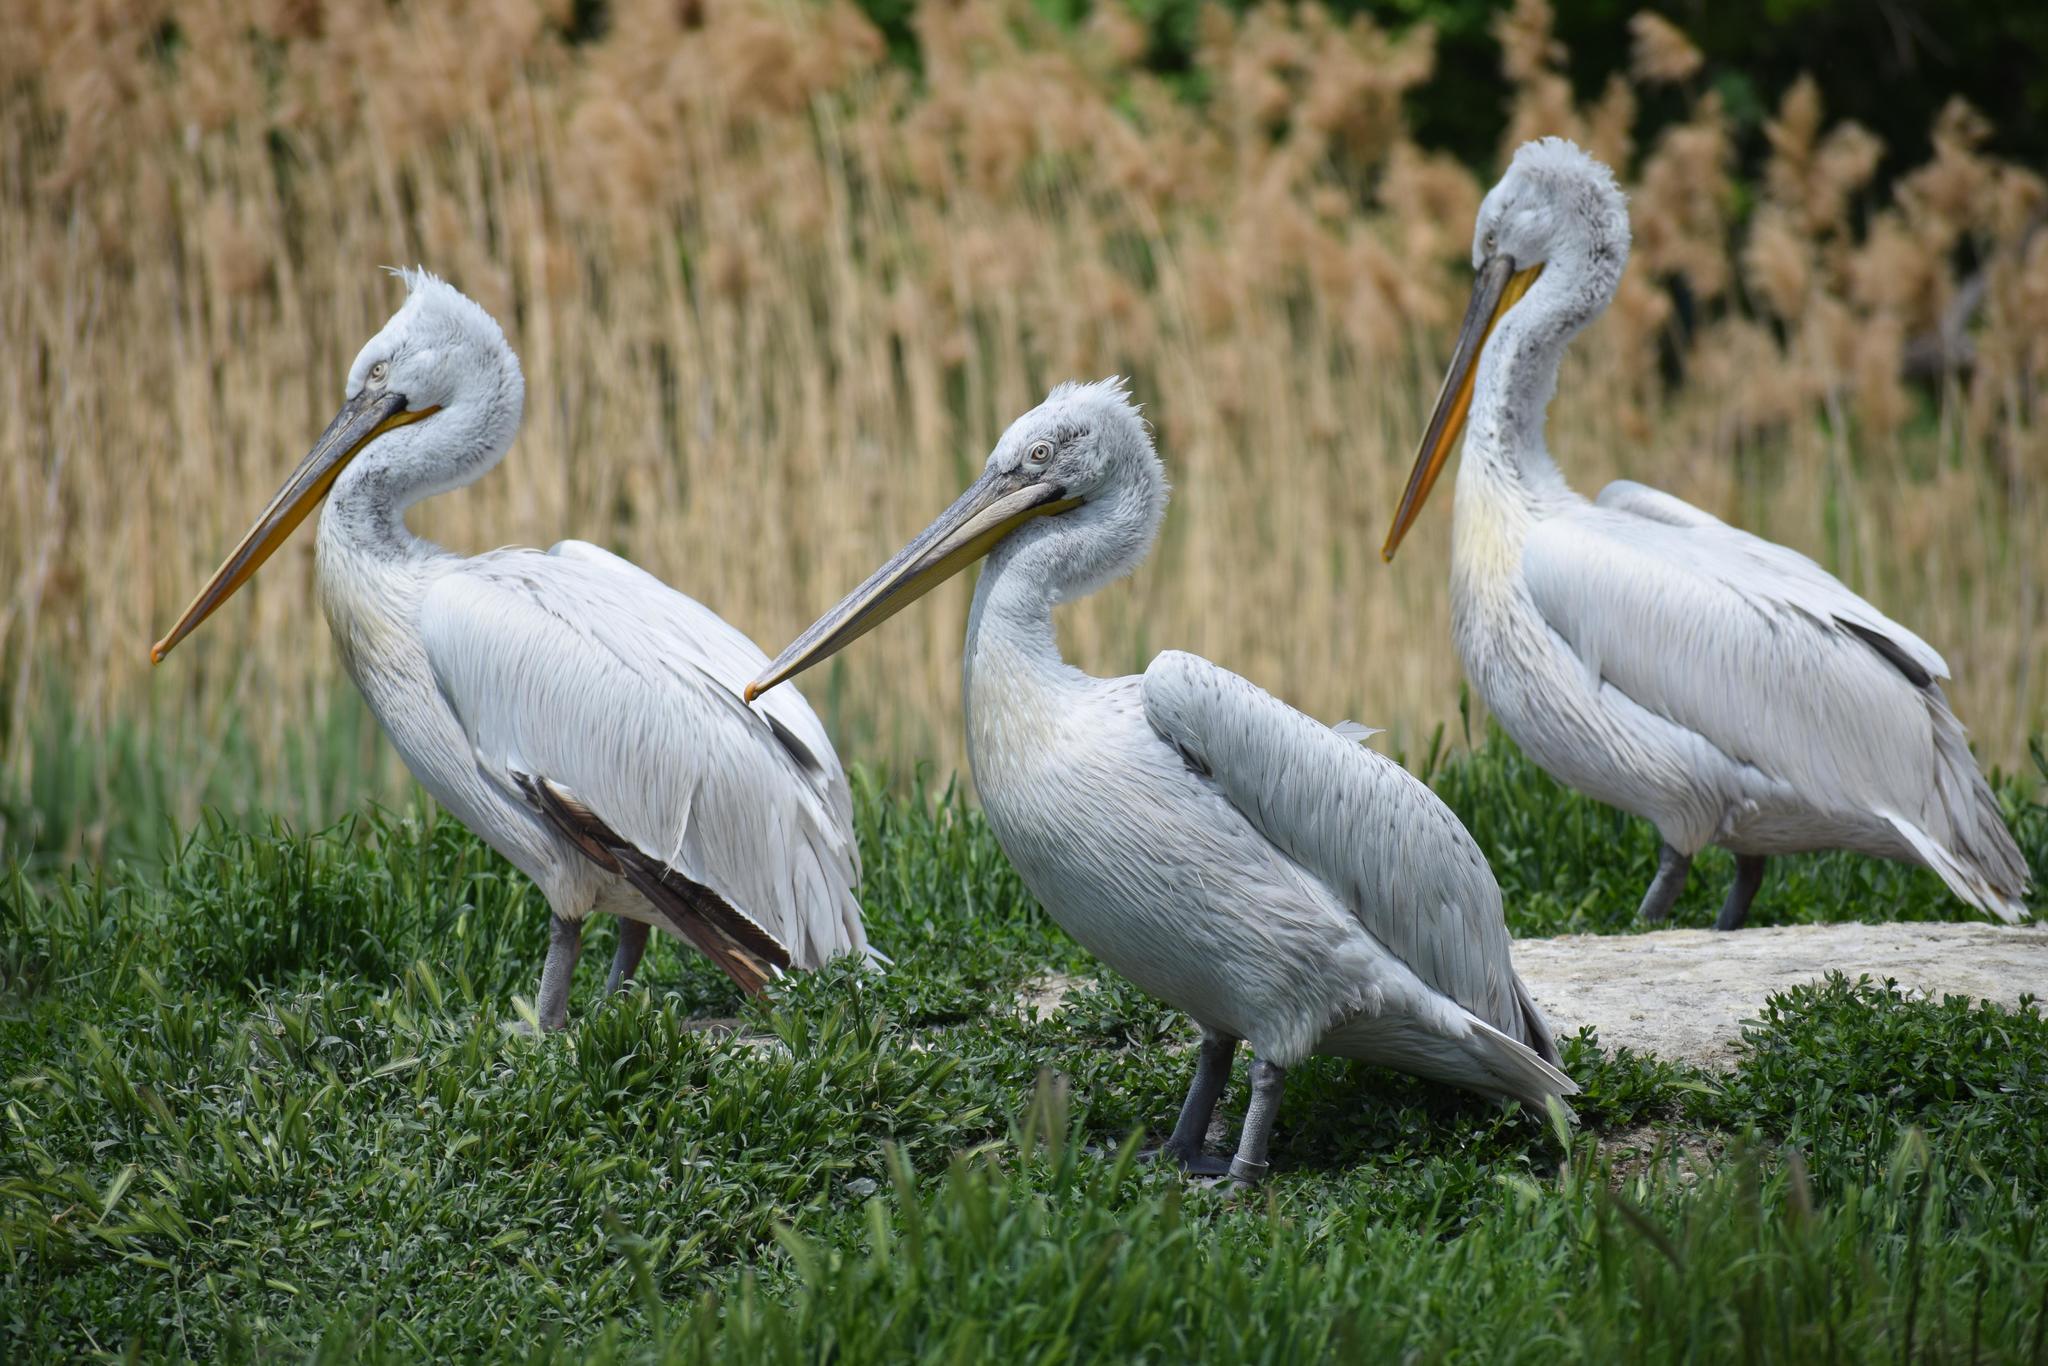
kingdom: Animalia
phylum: Chordata
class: Aves
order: Pelecaniformes
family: Pelecanidae
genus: Pelecanus
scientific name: Pelecanus crispus
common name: Dalmatian pelican
